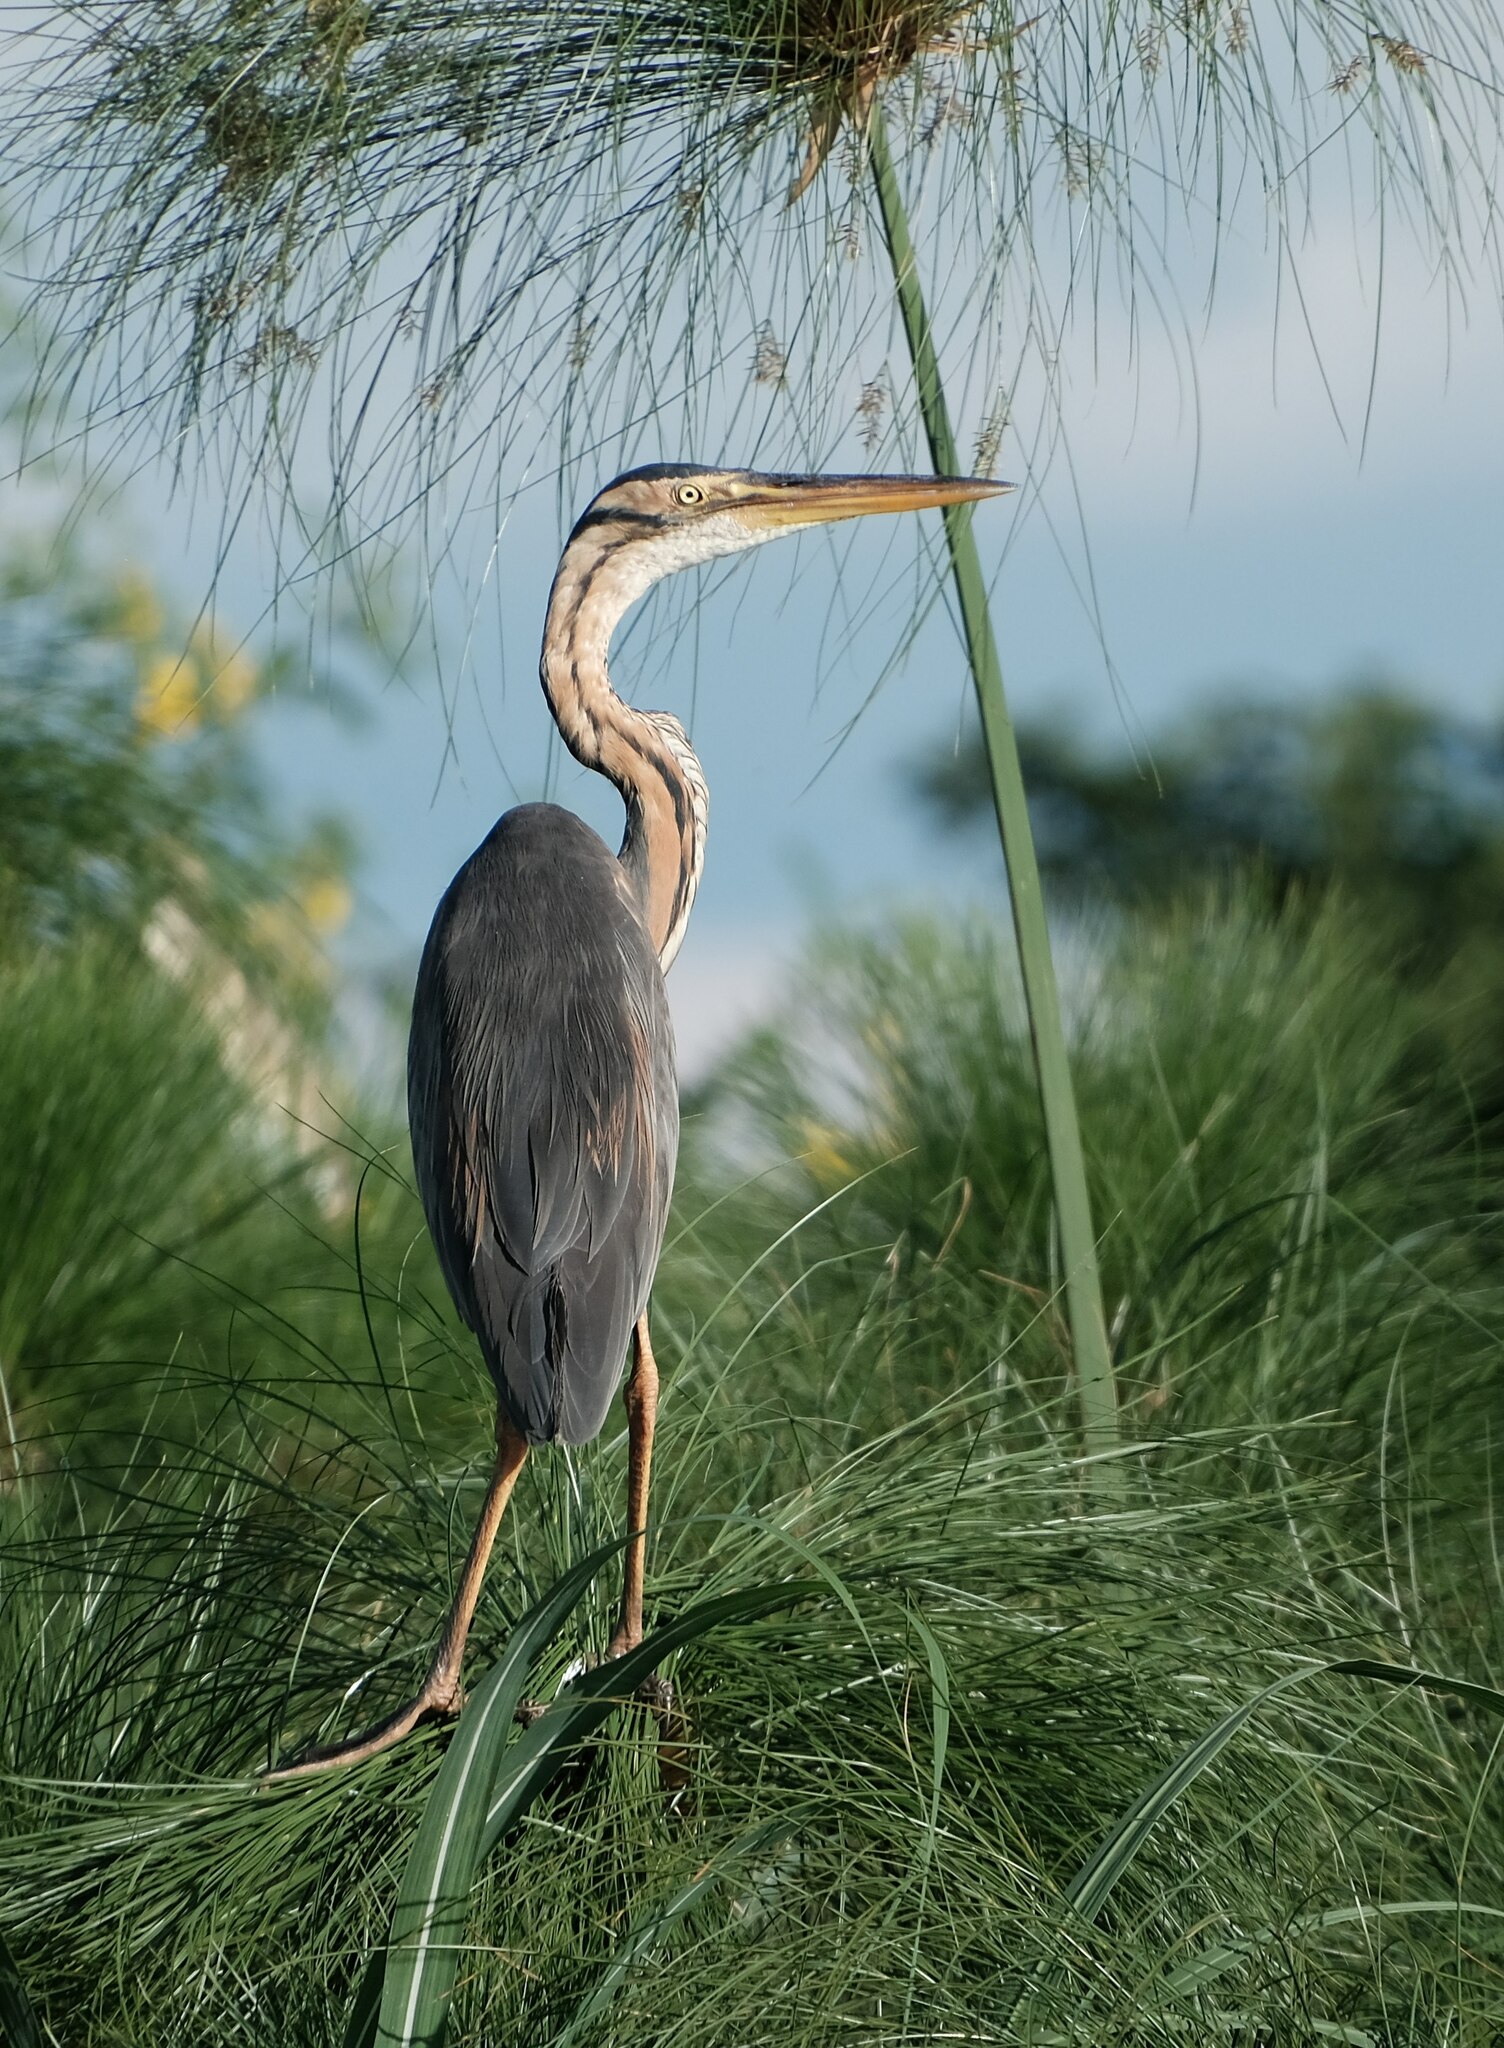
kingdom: Animalia
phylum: Chordata
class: Aves
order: Pelecaniformes
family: Ardeidae
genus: Ardea
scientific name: Ardea purpurea
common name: Purple heron
